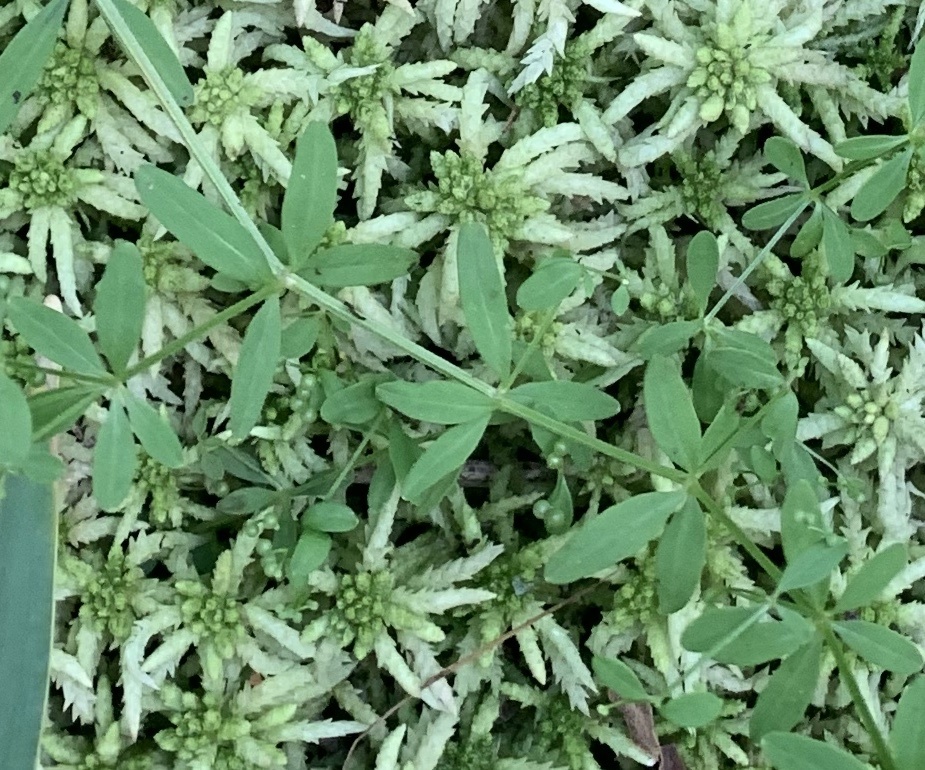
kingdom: Plantae
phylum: Tracheophyta
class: Magnoliopsida
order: Gentianales
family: Rubiaceae
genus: Galium
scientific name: Galium tinctorium
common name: Bedstraw
